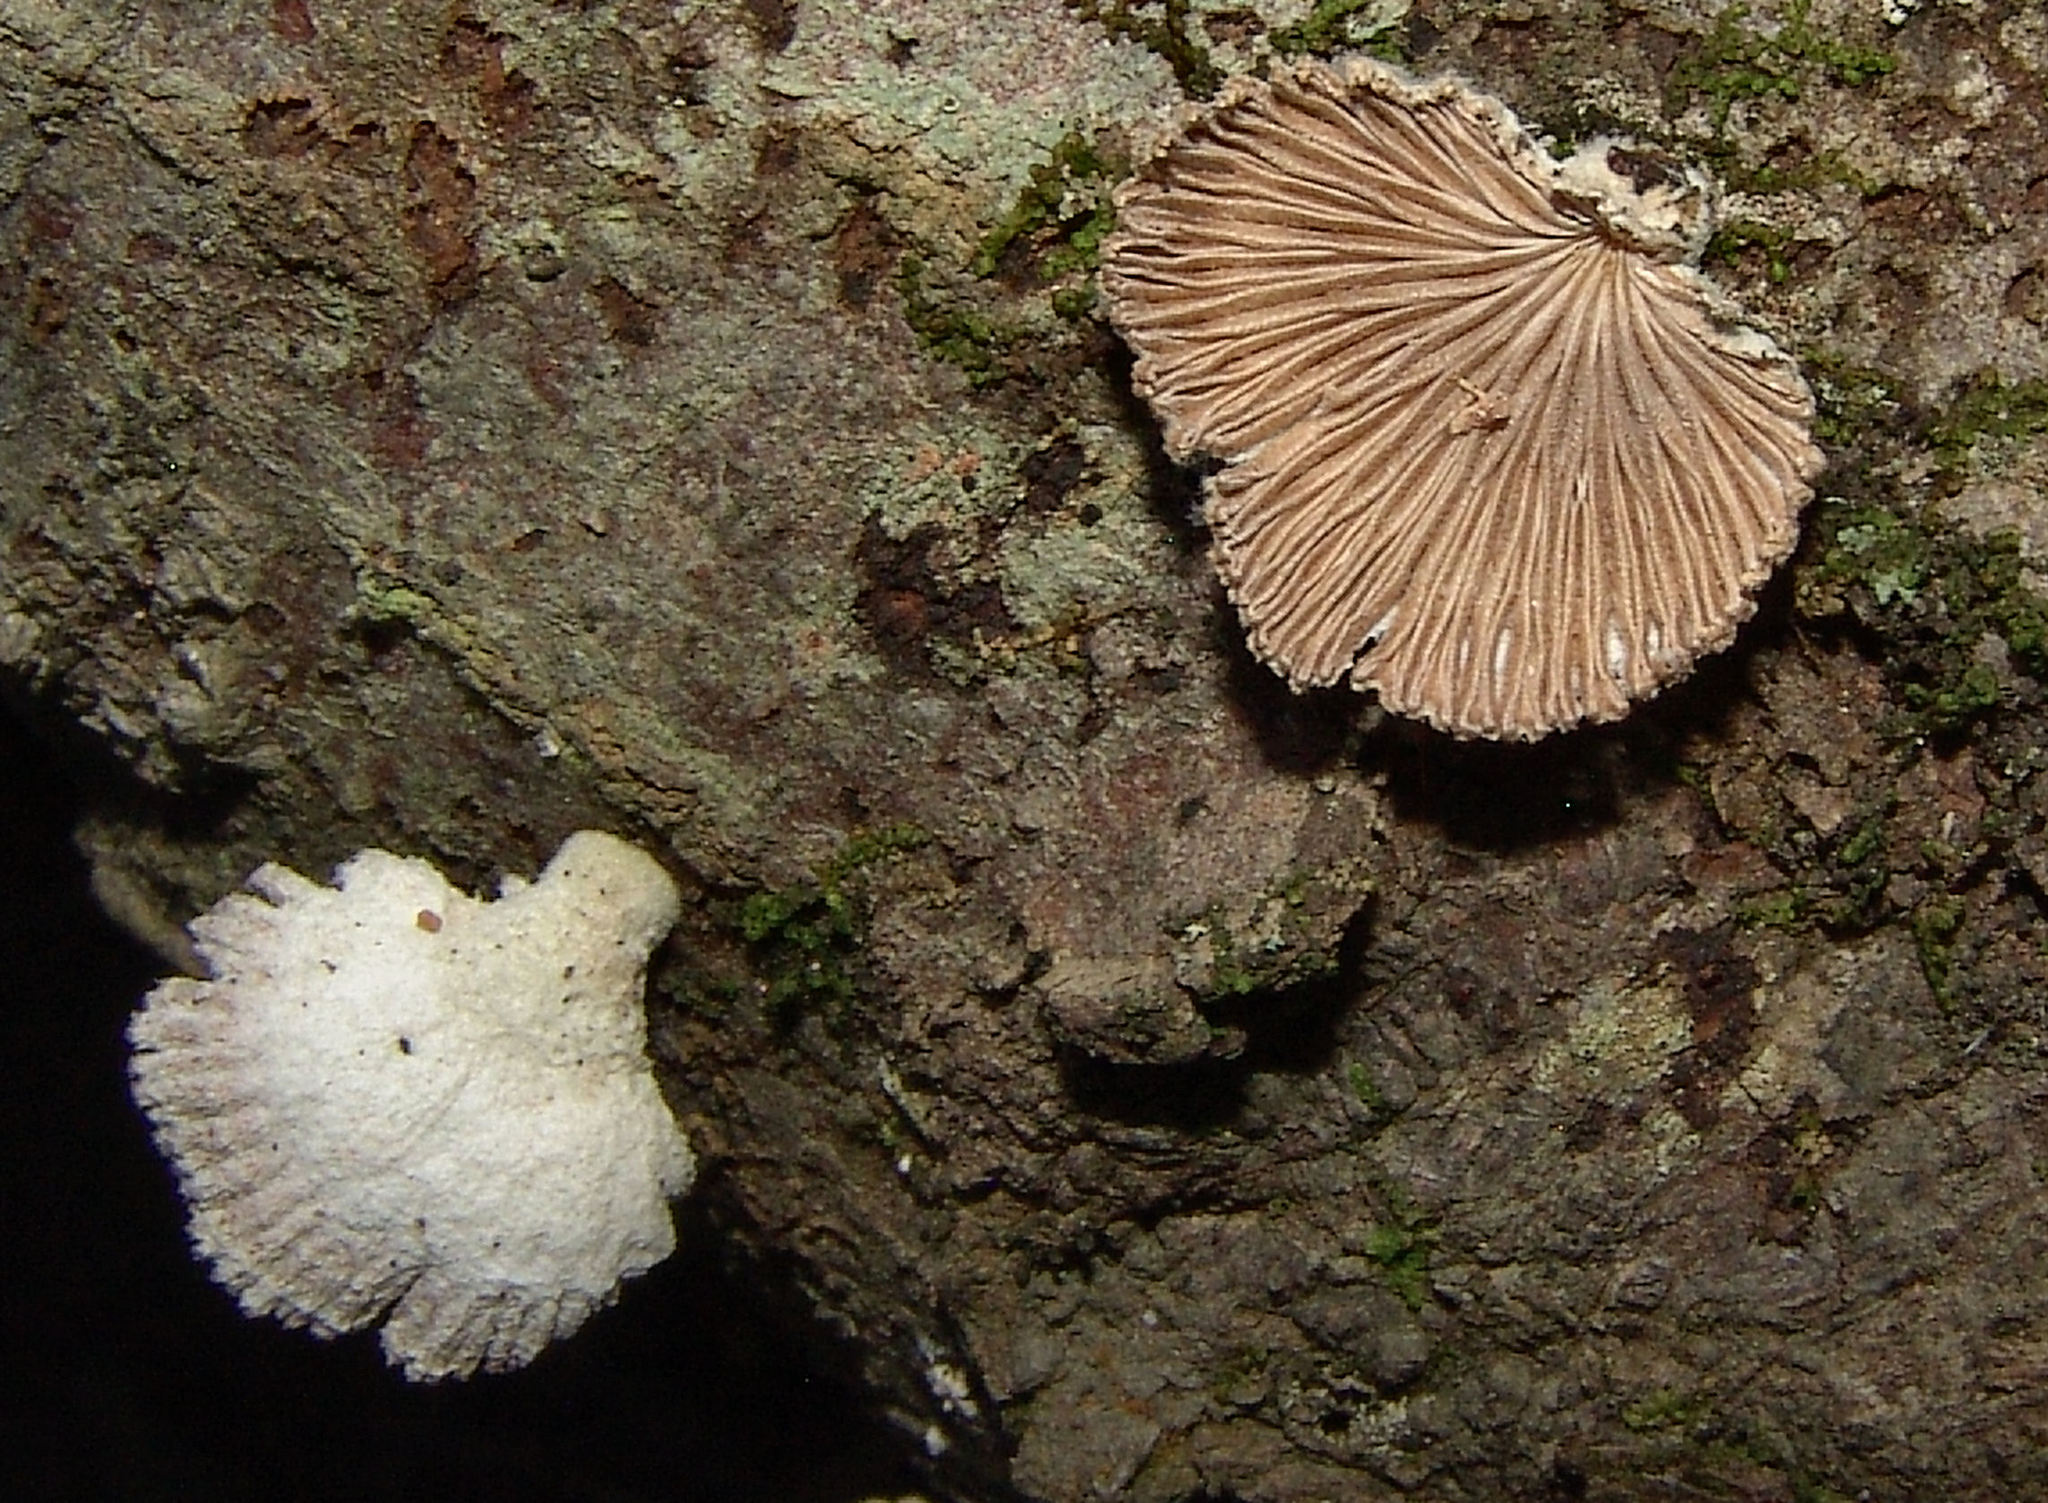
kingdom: Fungi
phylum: Basidiomycota
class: Agaricomycetes
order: Agaricales
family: Schizophyllaceae
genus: Schizophyllum
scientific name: Schizophyllum commune
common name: Common porecrust
